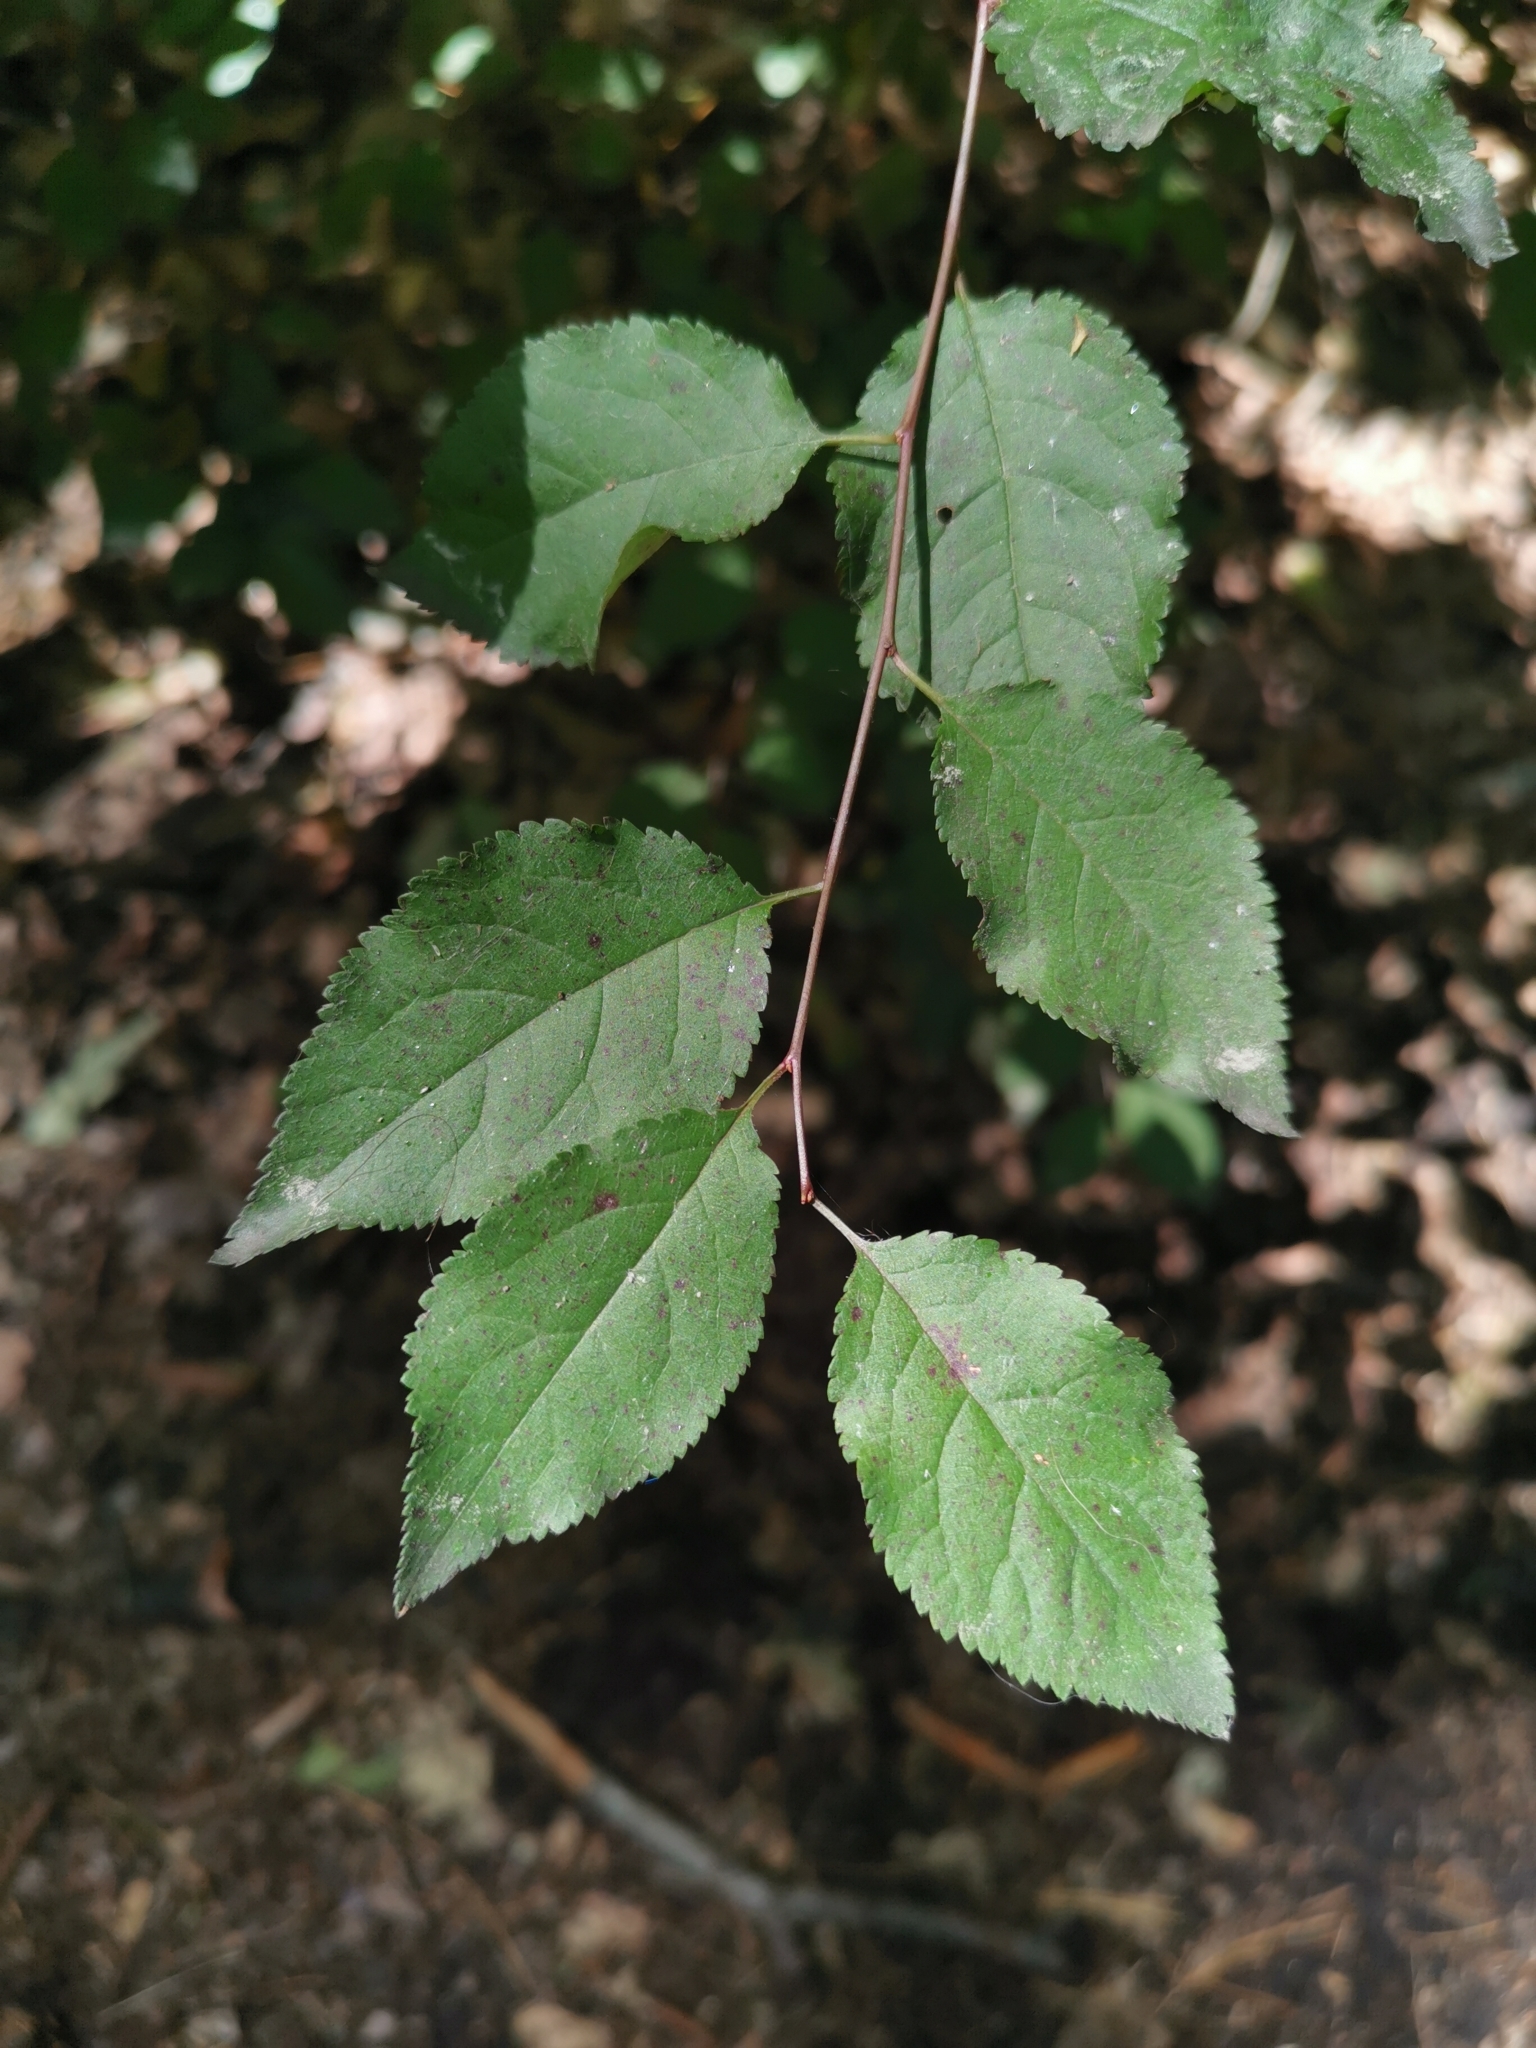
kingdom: Plantae
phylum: Tracheophyta
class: Magnoliopsida
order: Rosales
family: Rosaceae
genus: Prunus
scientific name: Prunus cerasifera
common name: Cherry plum
